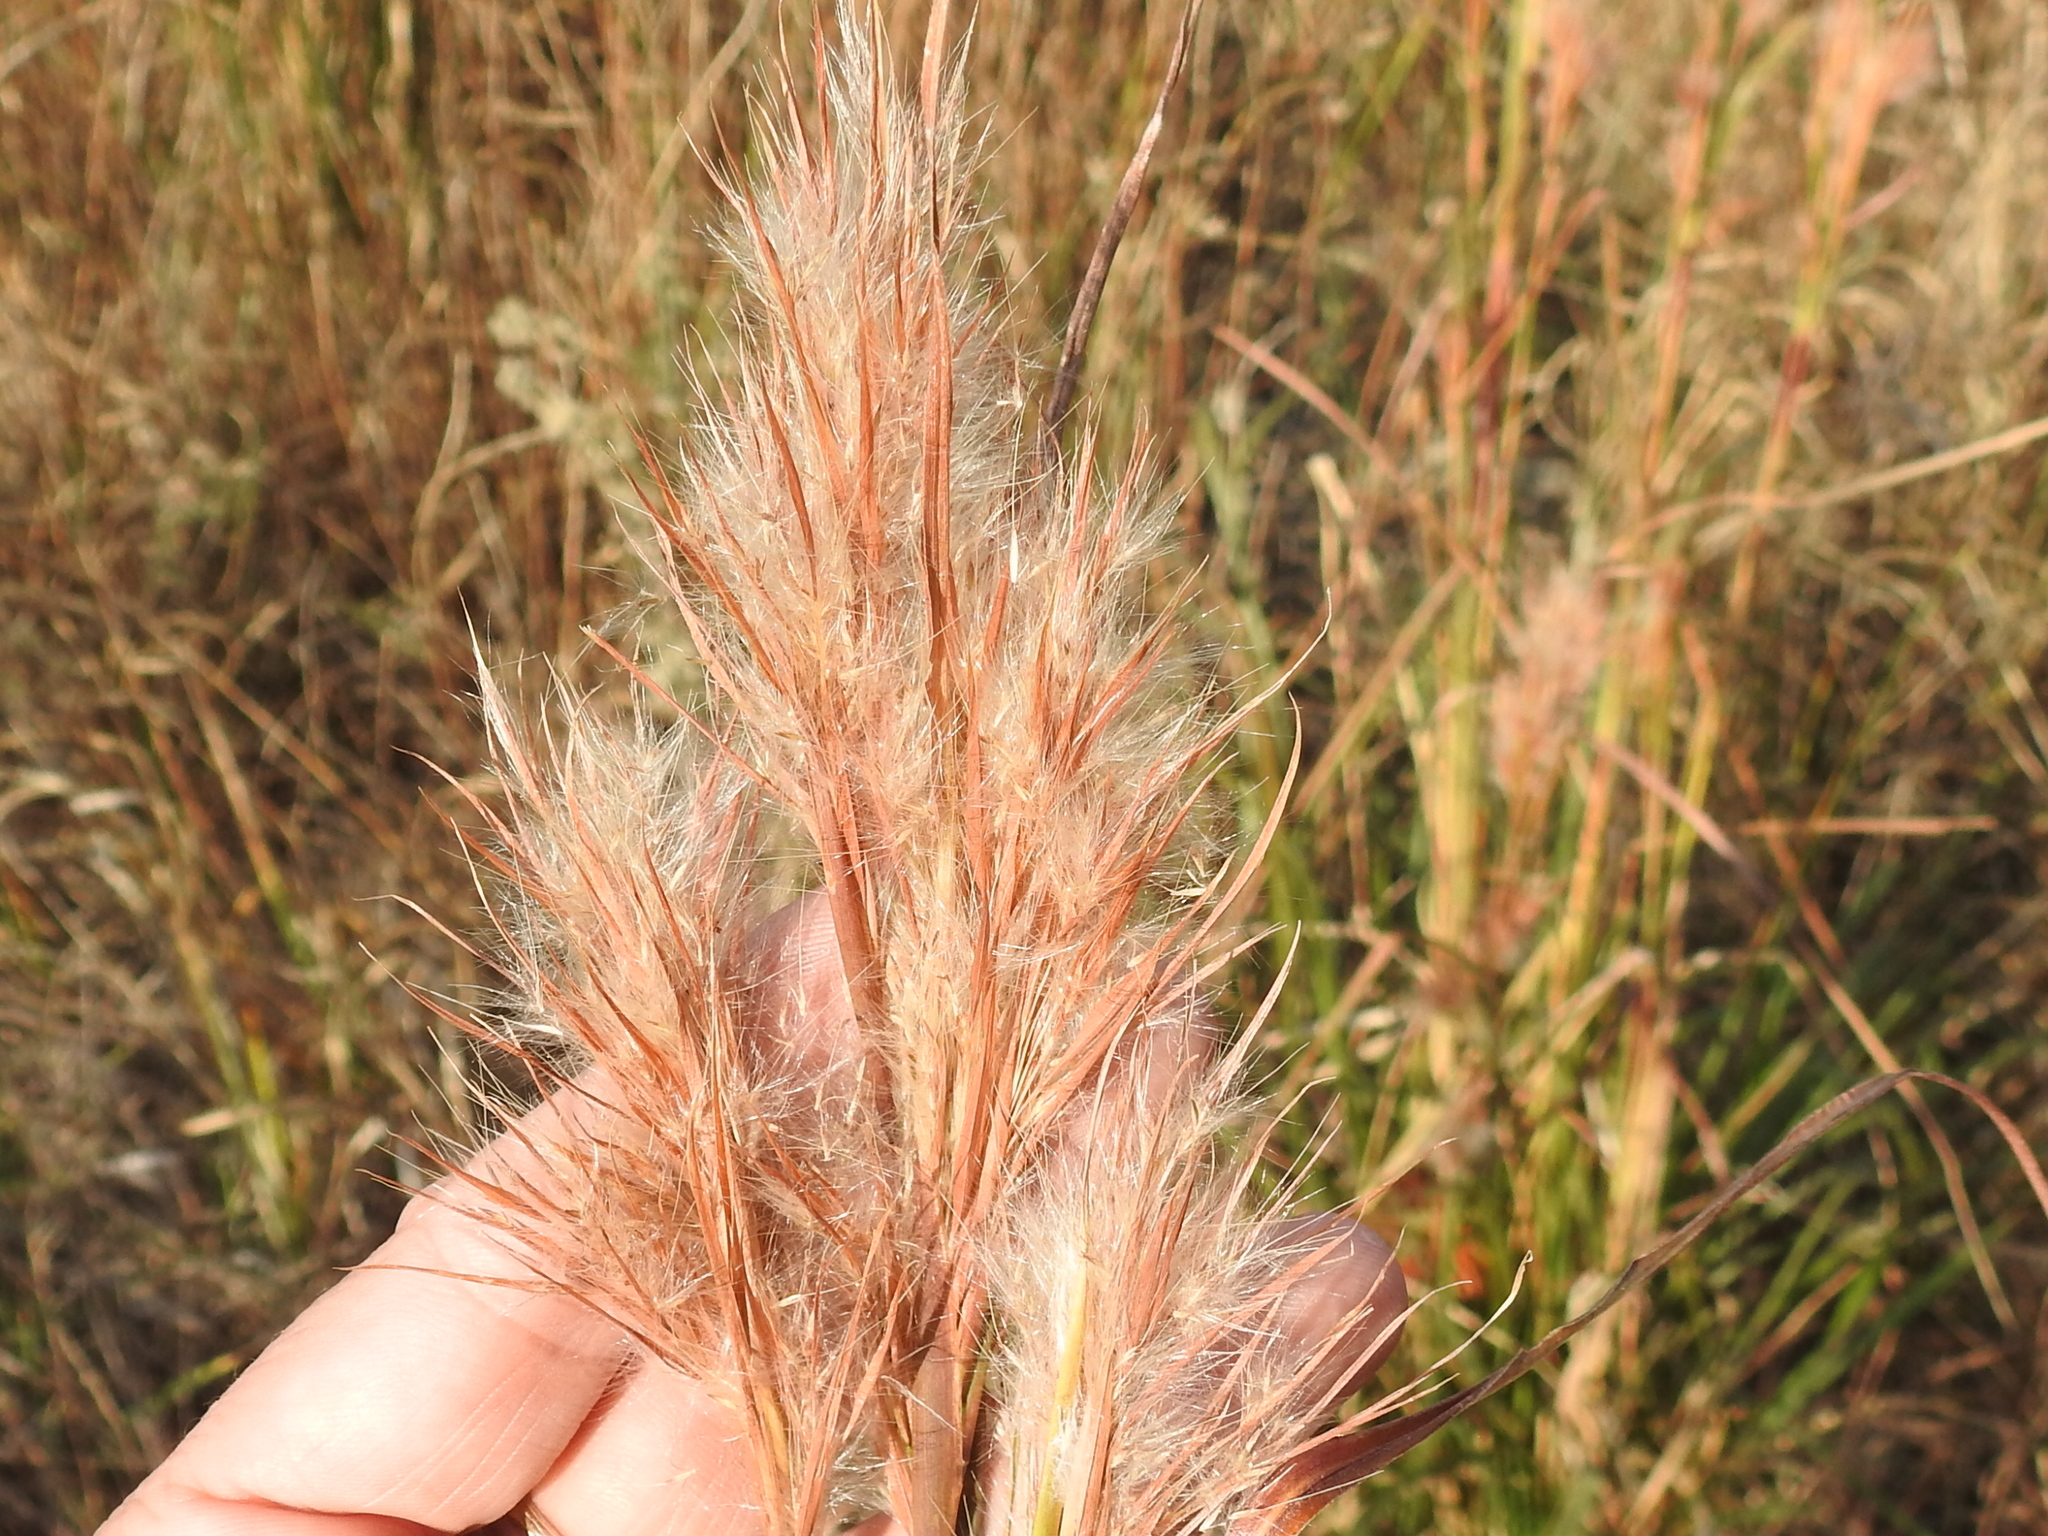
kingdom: Plantae
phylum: Tracheophyta
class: Liliopsida
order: Poales
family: Poaceae
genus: Andropogon
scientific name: Andropogon tenuispatheus
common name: Bushy bluestem
